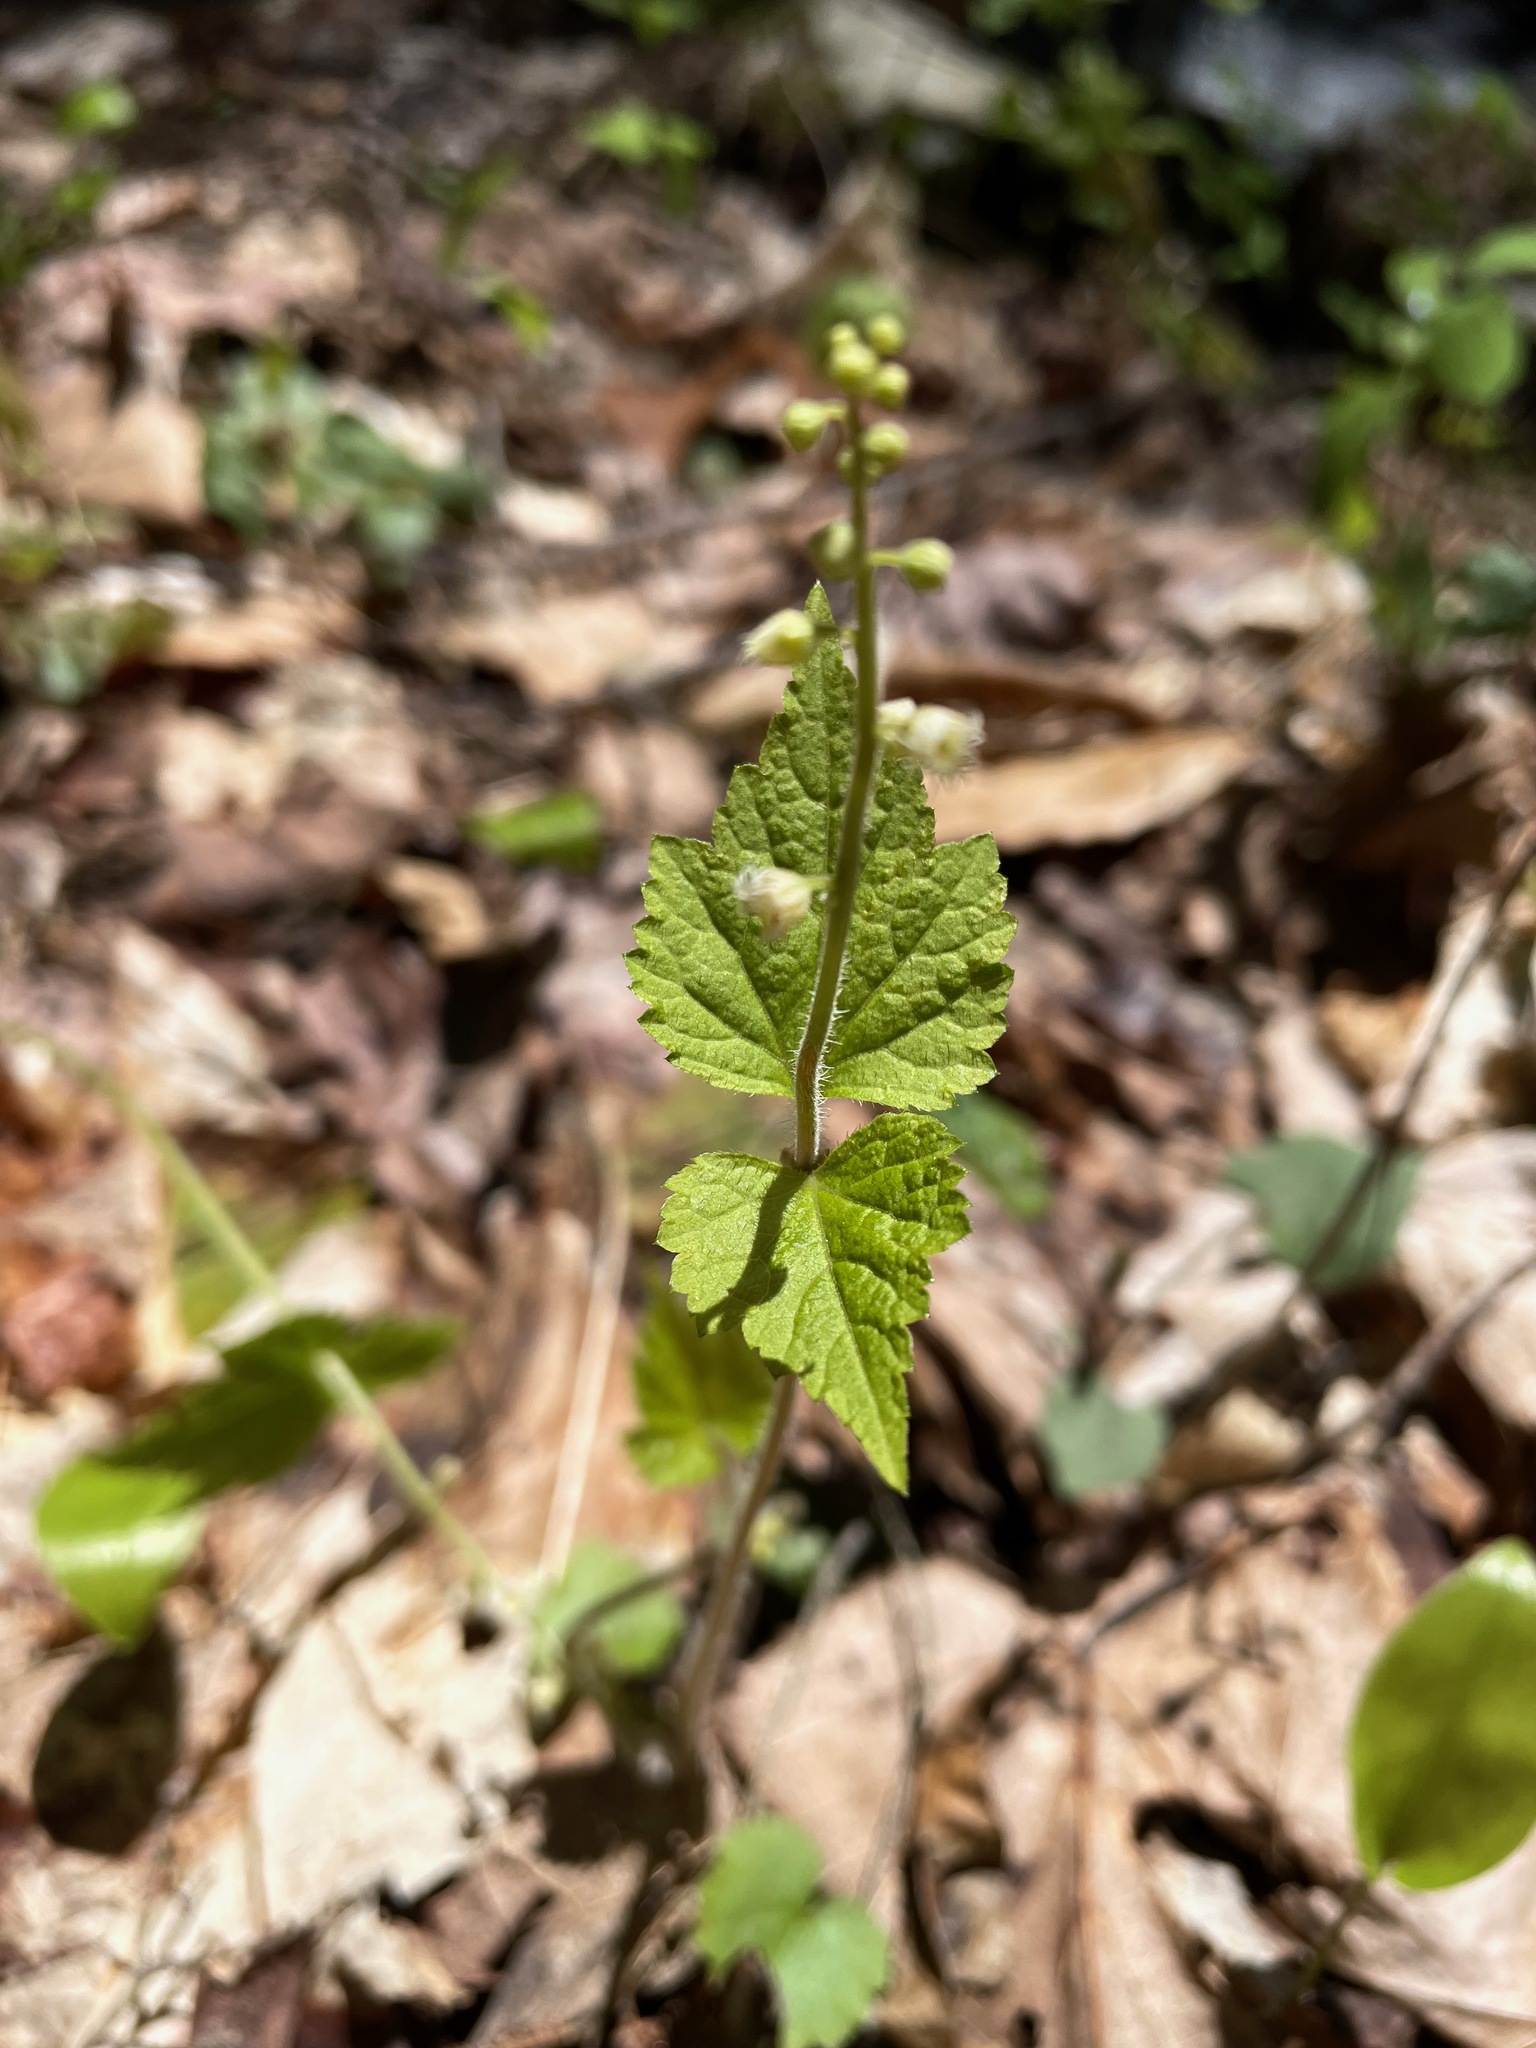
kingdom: Plantae
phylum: Tracheophyta
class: Magnoliopsida
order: Saxifragales
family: Saxifragaceae
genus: Mitella
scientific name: Mitella diphylla
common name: Coolwort
